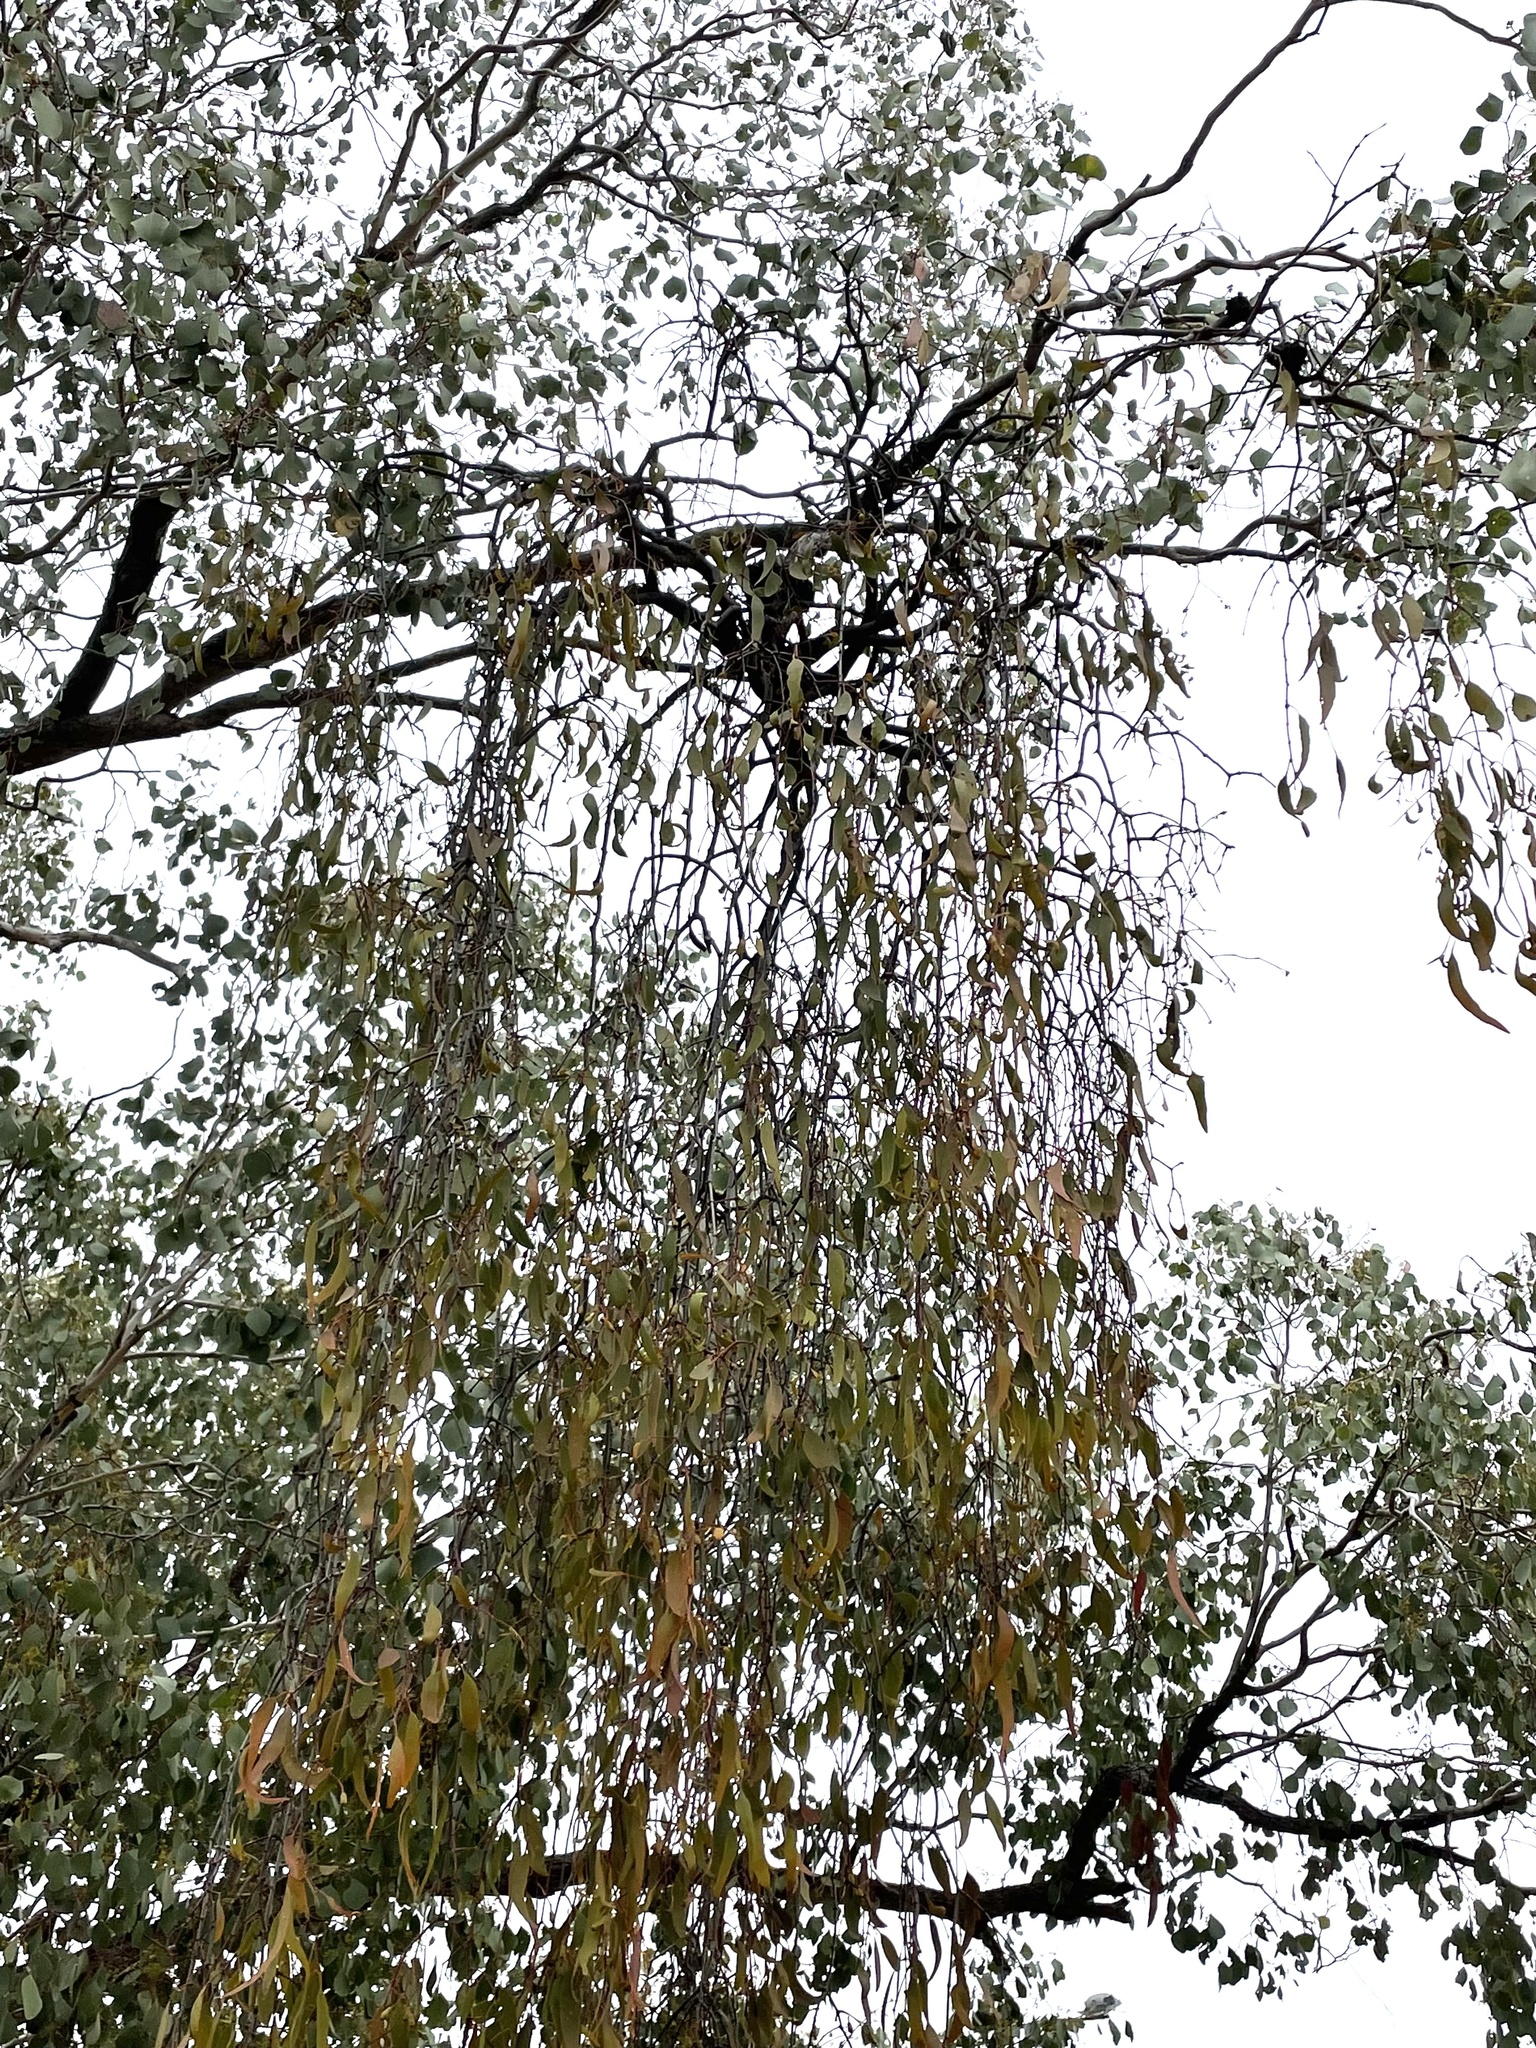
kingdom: Plantae
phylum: Tracheophyta
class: Magnoliopsida
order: Santalales
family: Loranthaceae
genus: Amyema
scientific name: Amyema miquelii
